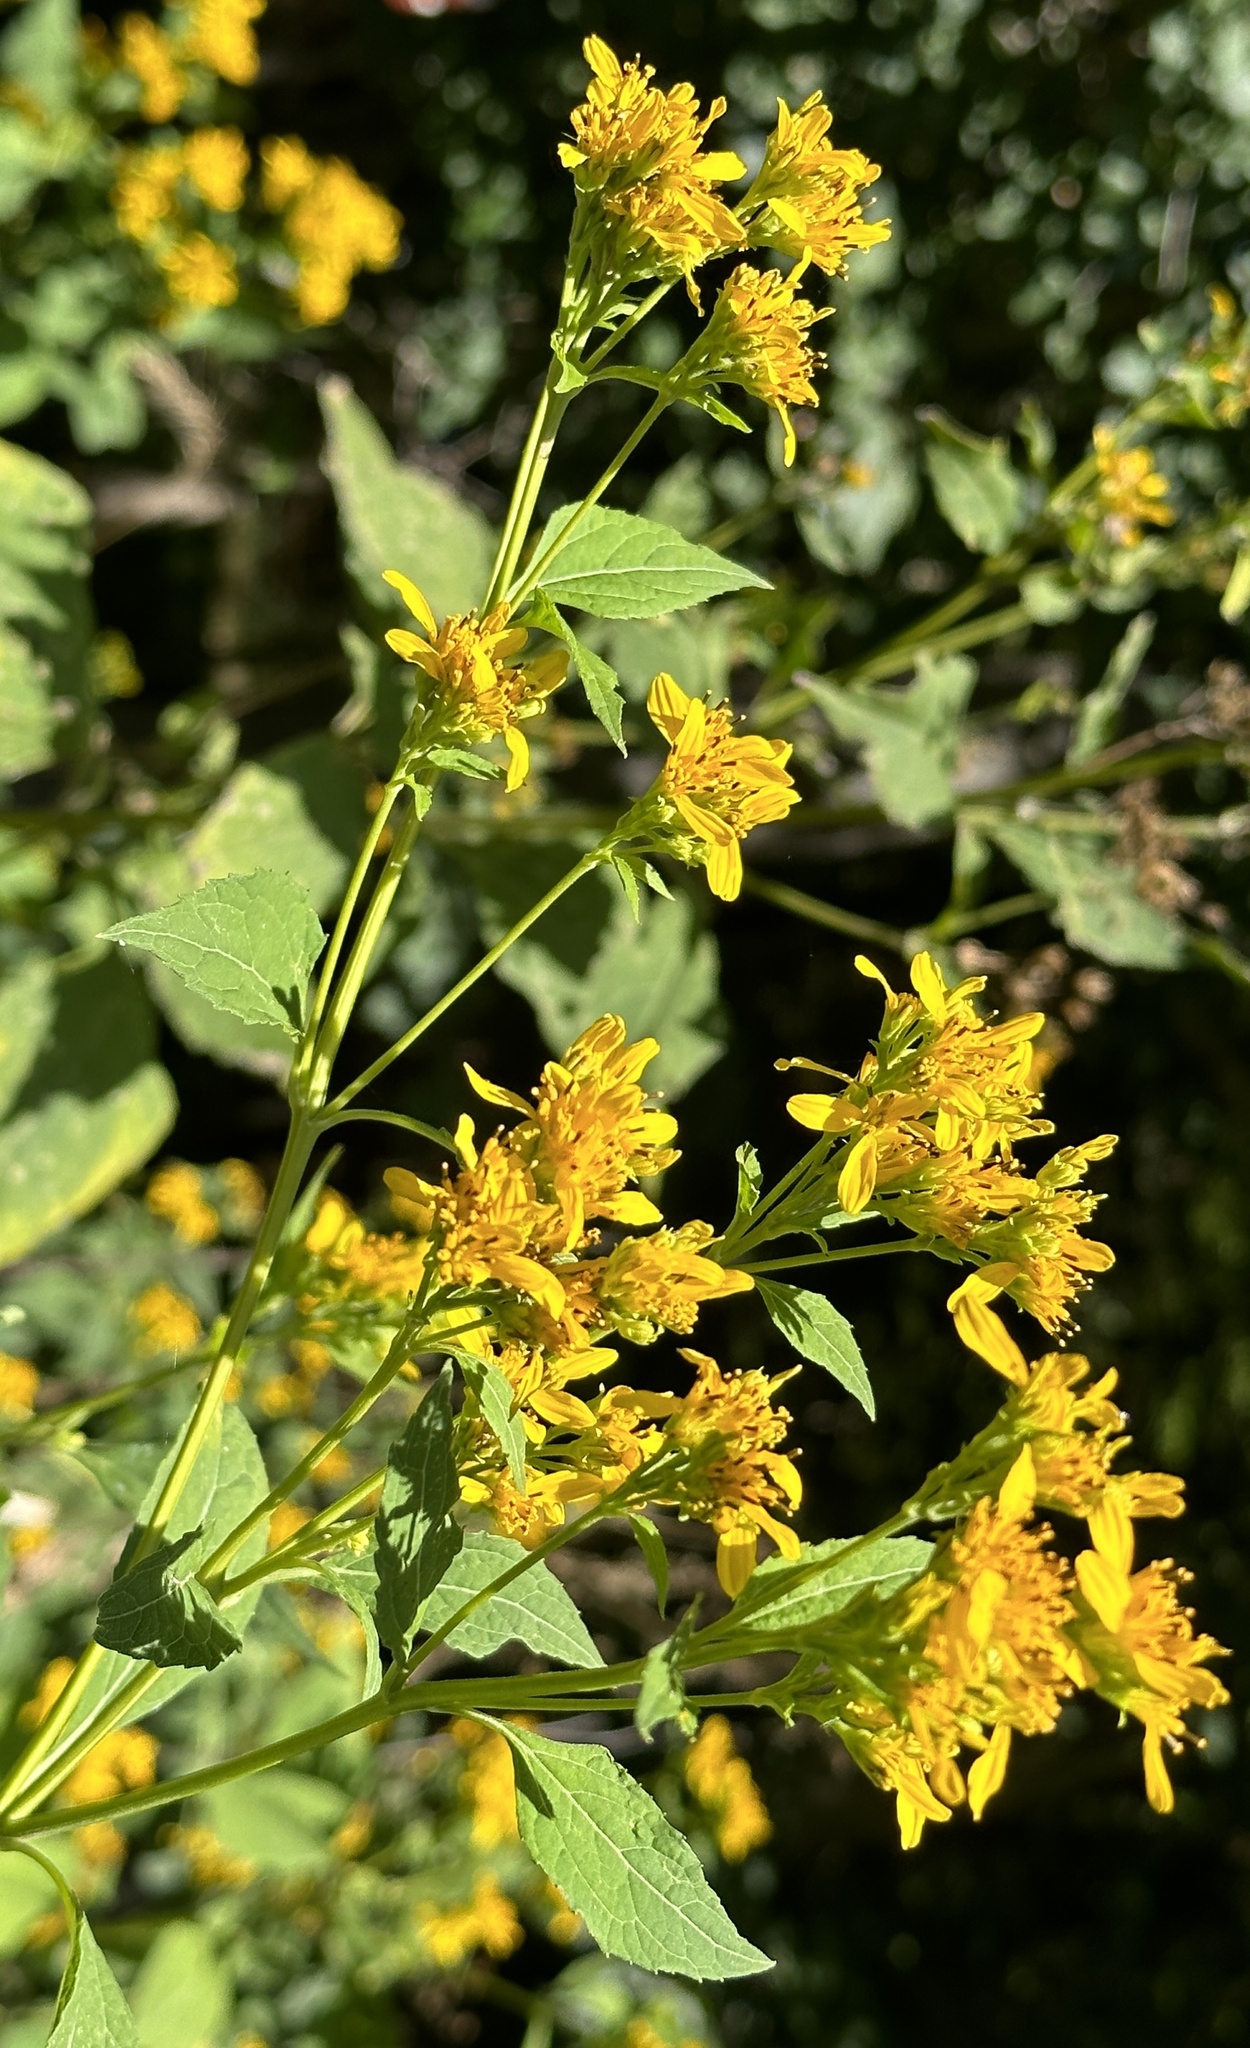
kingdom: Plantae
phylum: Tracheophyta
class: Magnoliopsida
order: Asterales
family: Asteraceae
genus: Verbesina
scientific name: Verbesina occidentalis
